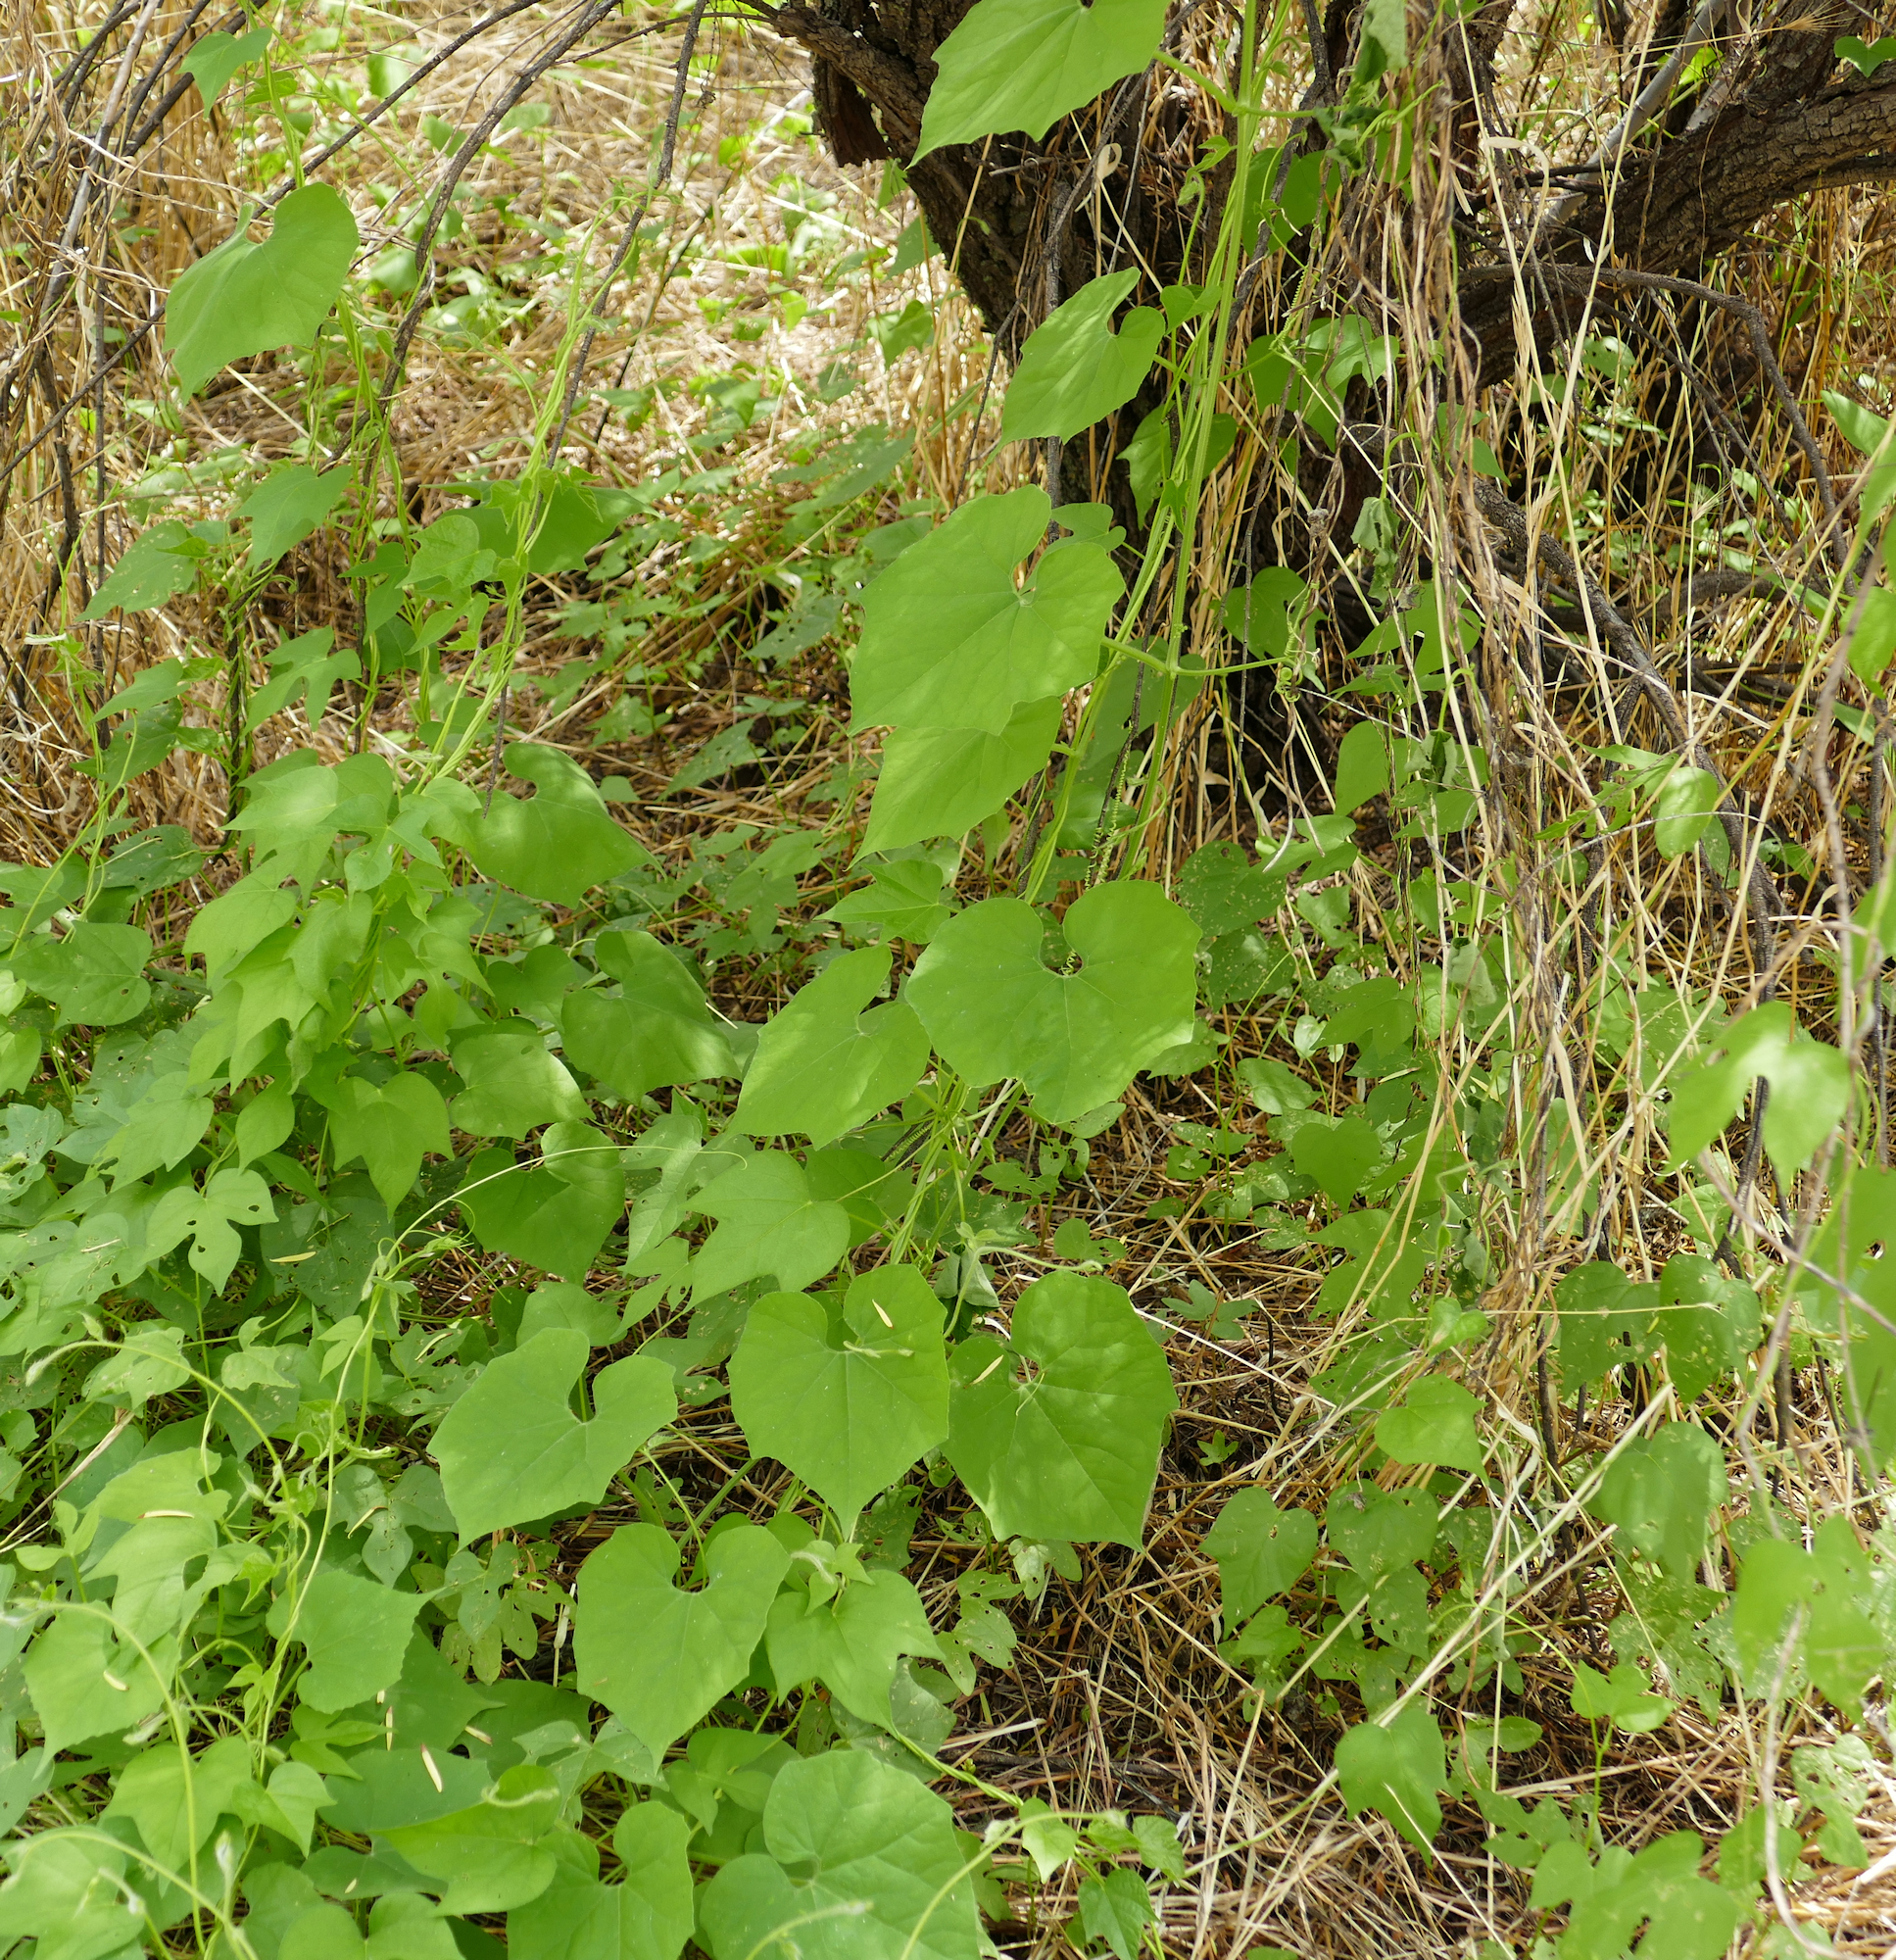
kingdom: Plantae
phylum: Tracheophyta
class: Magnoliopsida
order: Cucurbitales
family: Cucurbitaceae
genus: Echinopepon
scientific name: Echinopepon wrightii
